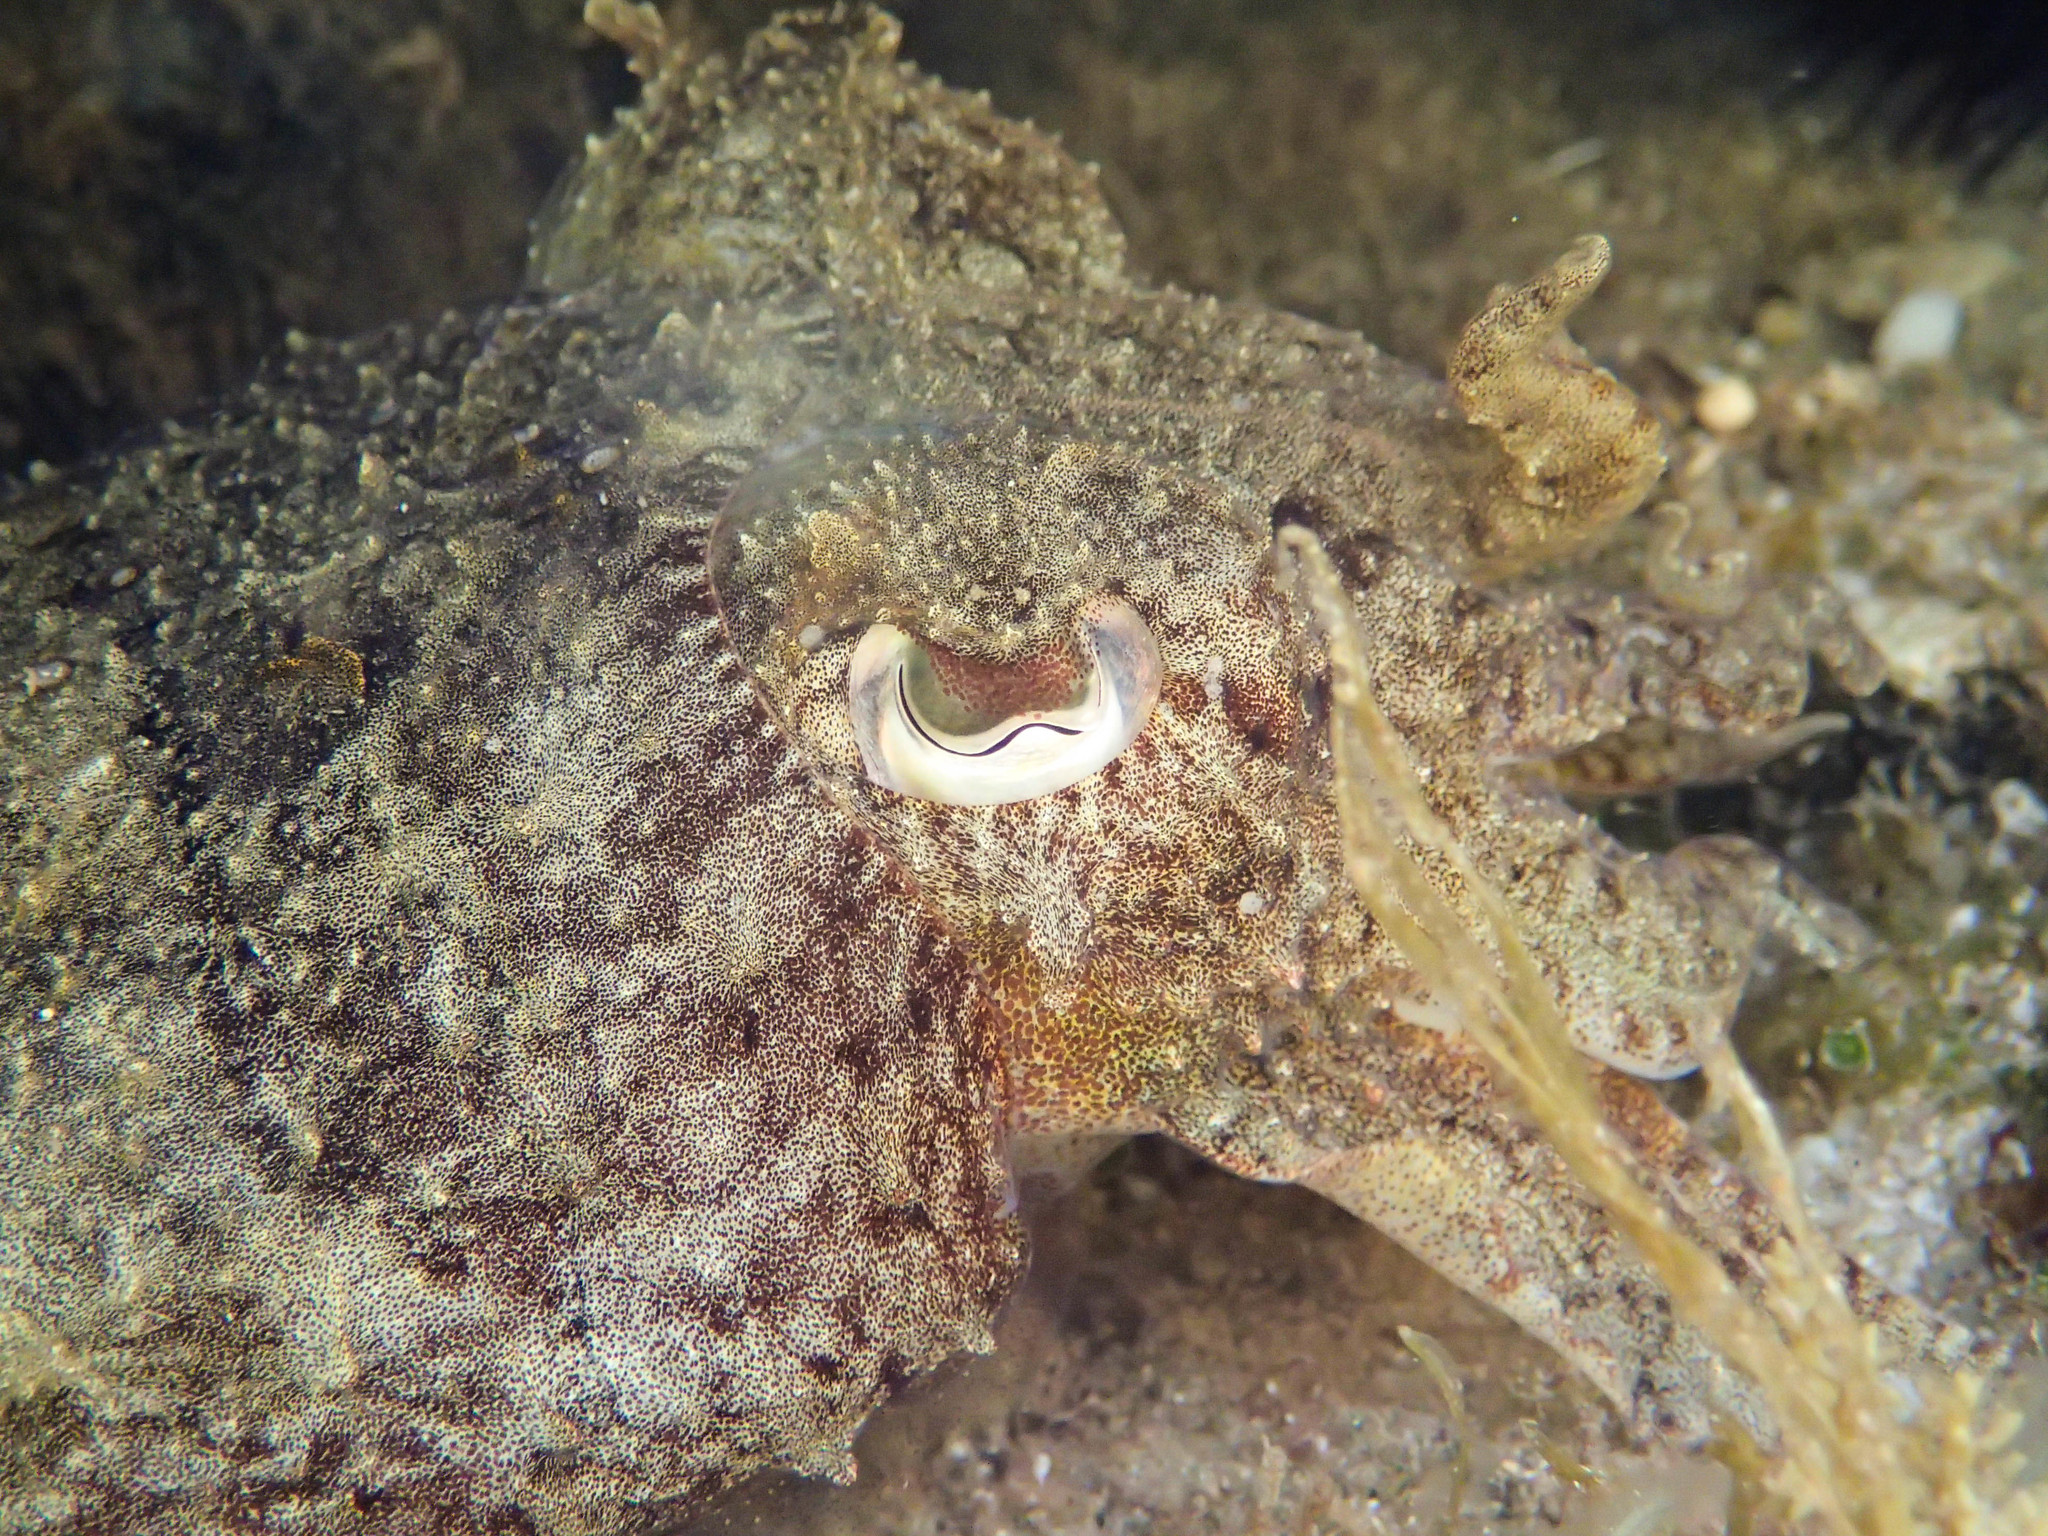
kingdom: Animalia
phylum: Mollusca
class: Cephalopoda
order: Sepiida
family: Sepiidae
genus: Sepia
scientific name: Sepia officinalis
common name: Common cuttlefish
